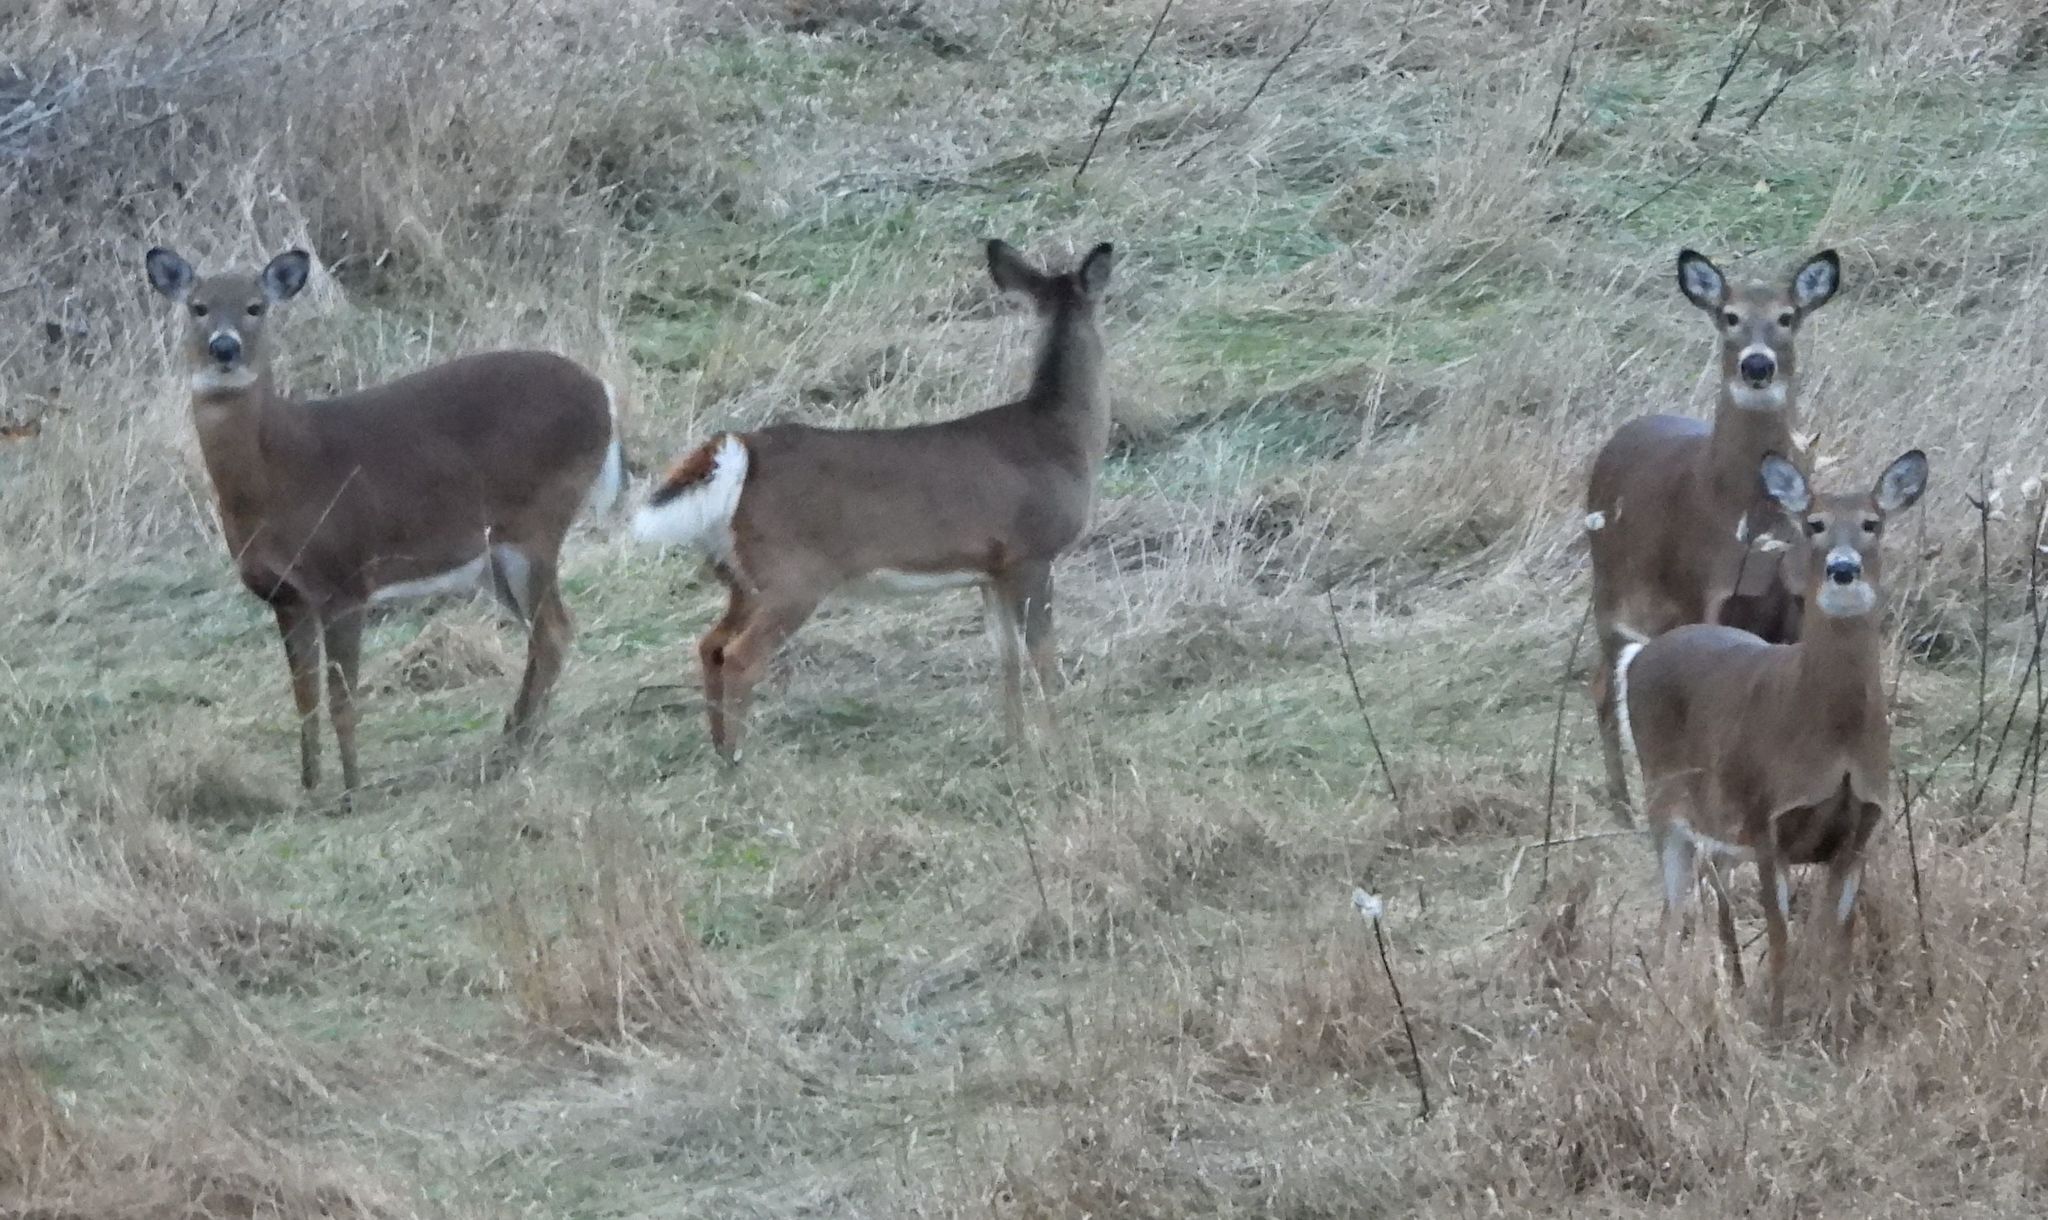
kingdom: Animalia
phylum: Chordata
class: Mammalia
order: Artiodactyla
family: Cervidae
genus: Odocoileus
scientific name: Odocoileus virginianus
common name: White-tailed deer
